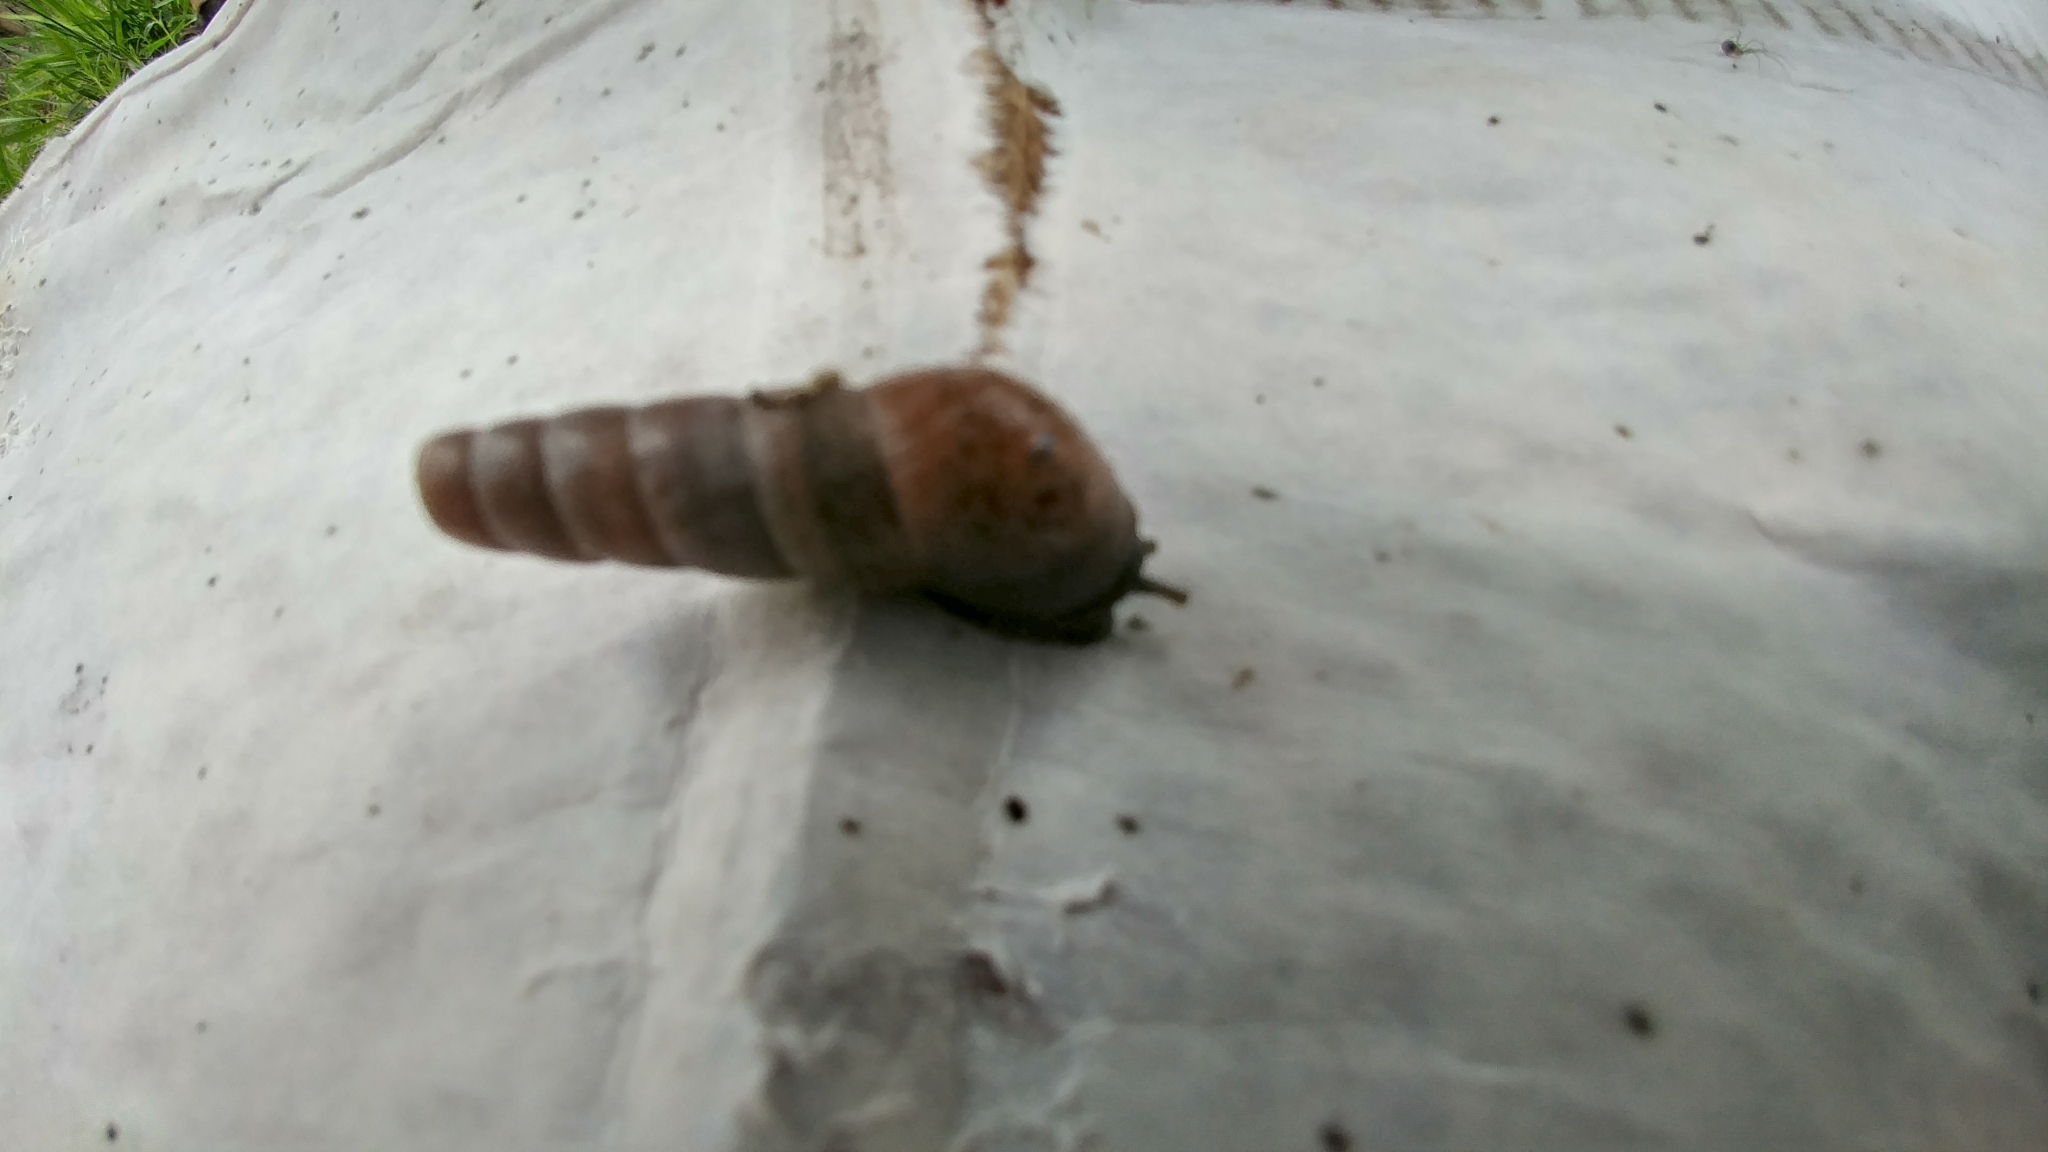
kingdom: Animalia
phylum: Mollusca
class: Gastropoda
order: Stylommatophora
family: Achatinidae
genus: Rumina
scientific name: Rumina decollata
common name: Decollate snail
